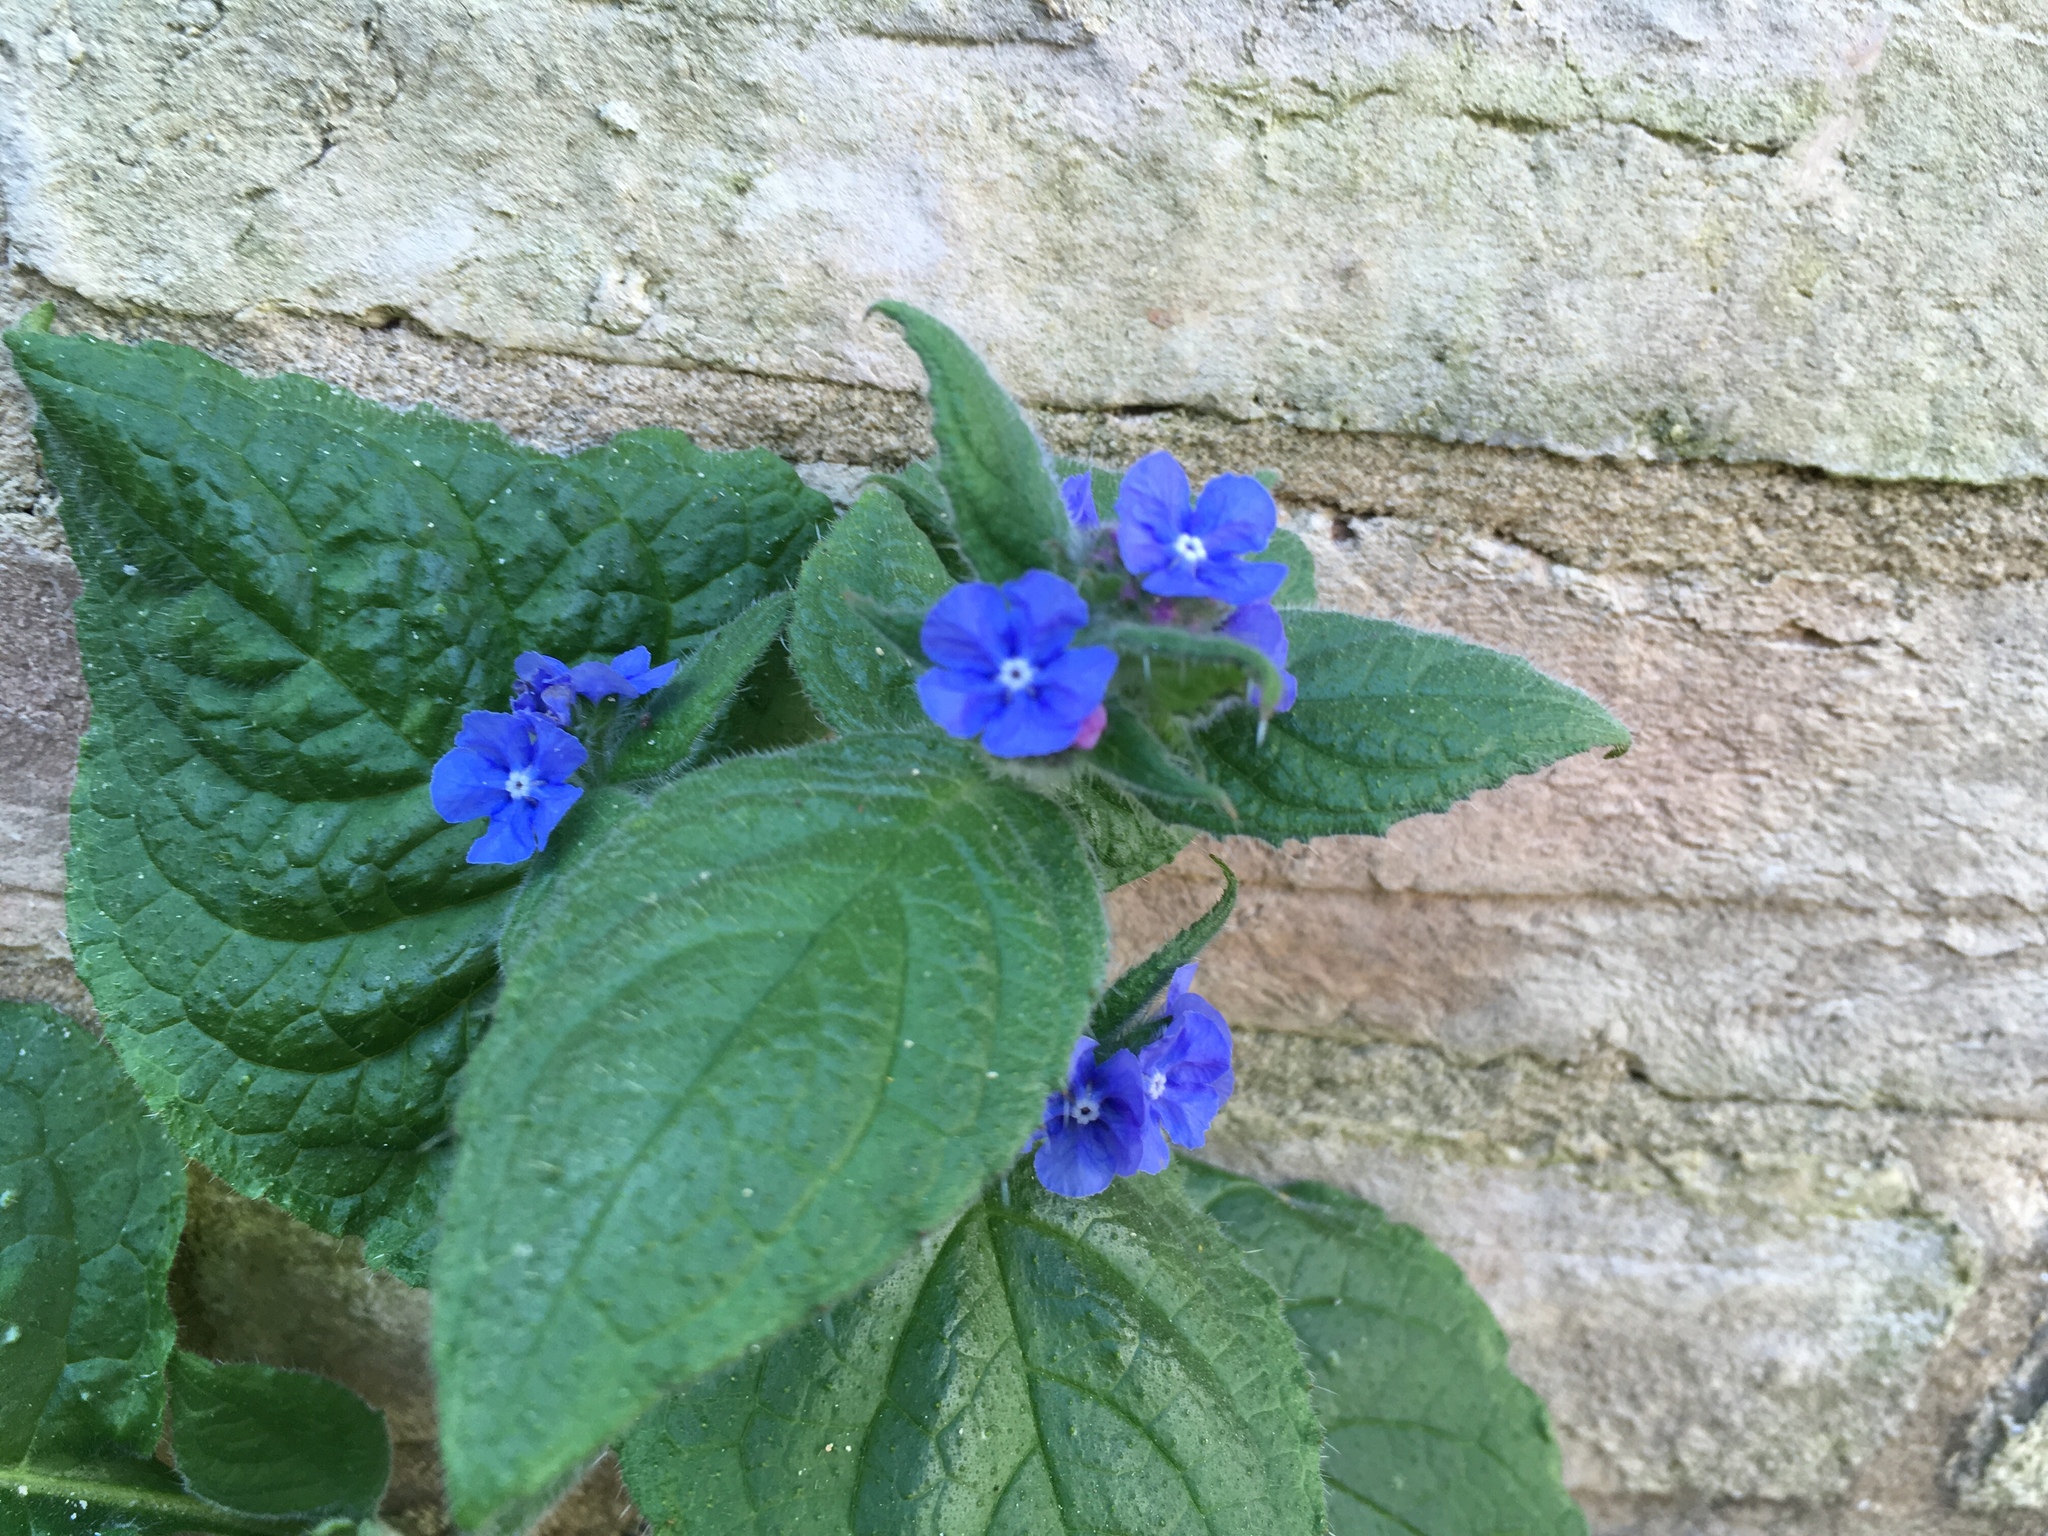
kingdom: Plantae
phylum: Tracheophyta
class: Magnoliopsida
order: Boraginales
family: Boraginaceae
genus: Pentaglottis
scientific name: Pentaglottis sempervirens
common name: Green alkanet
